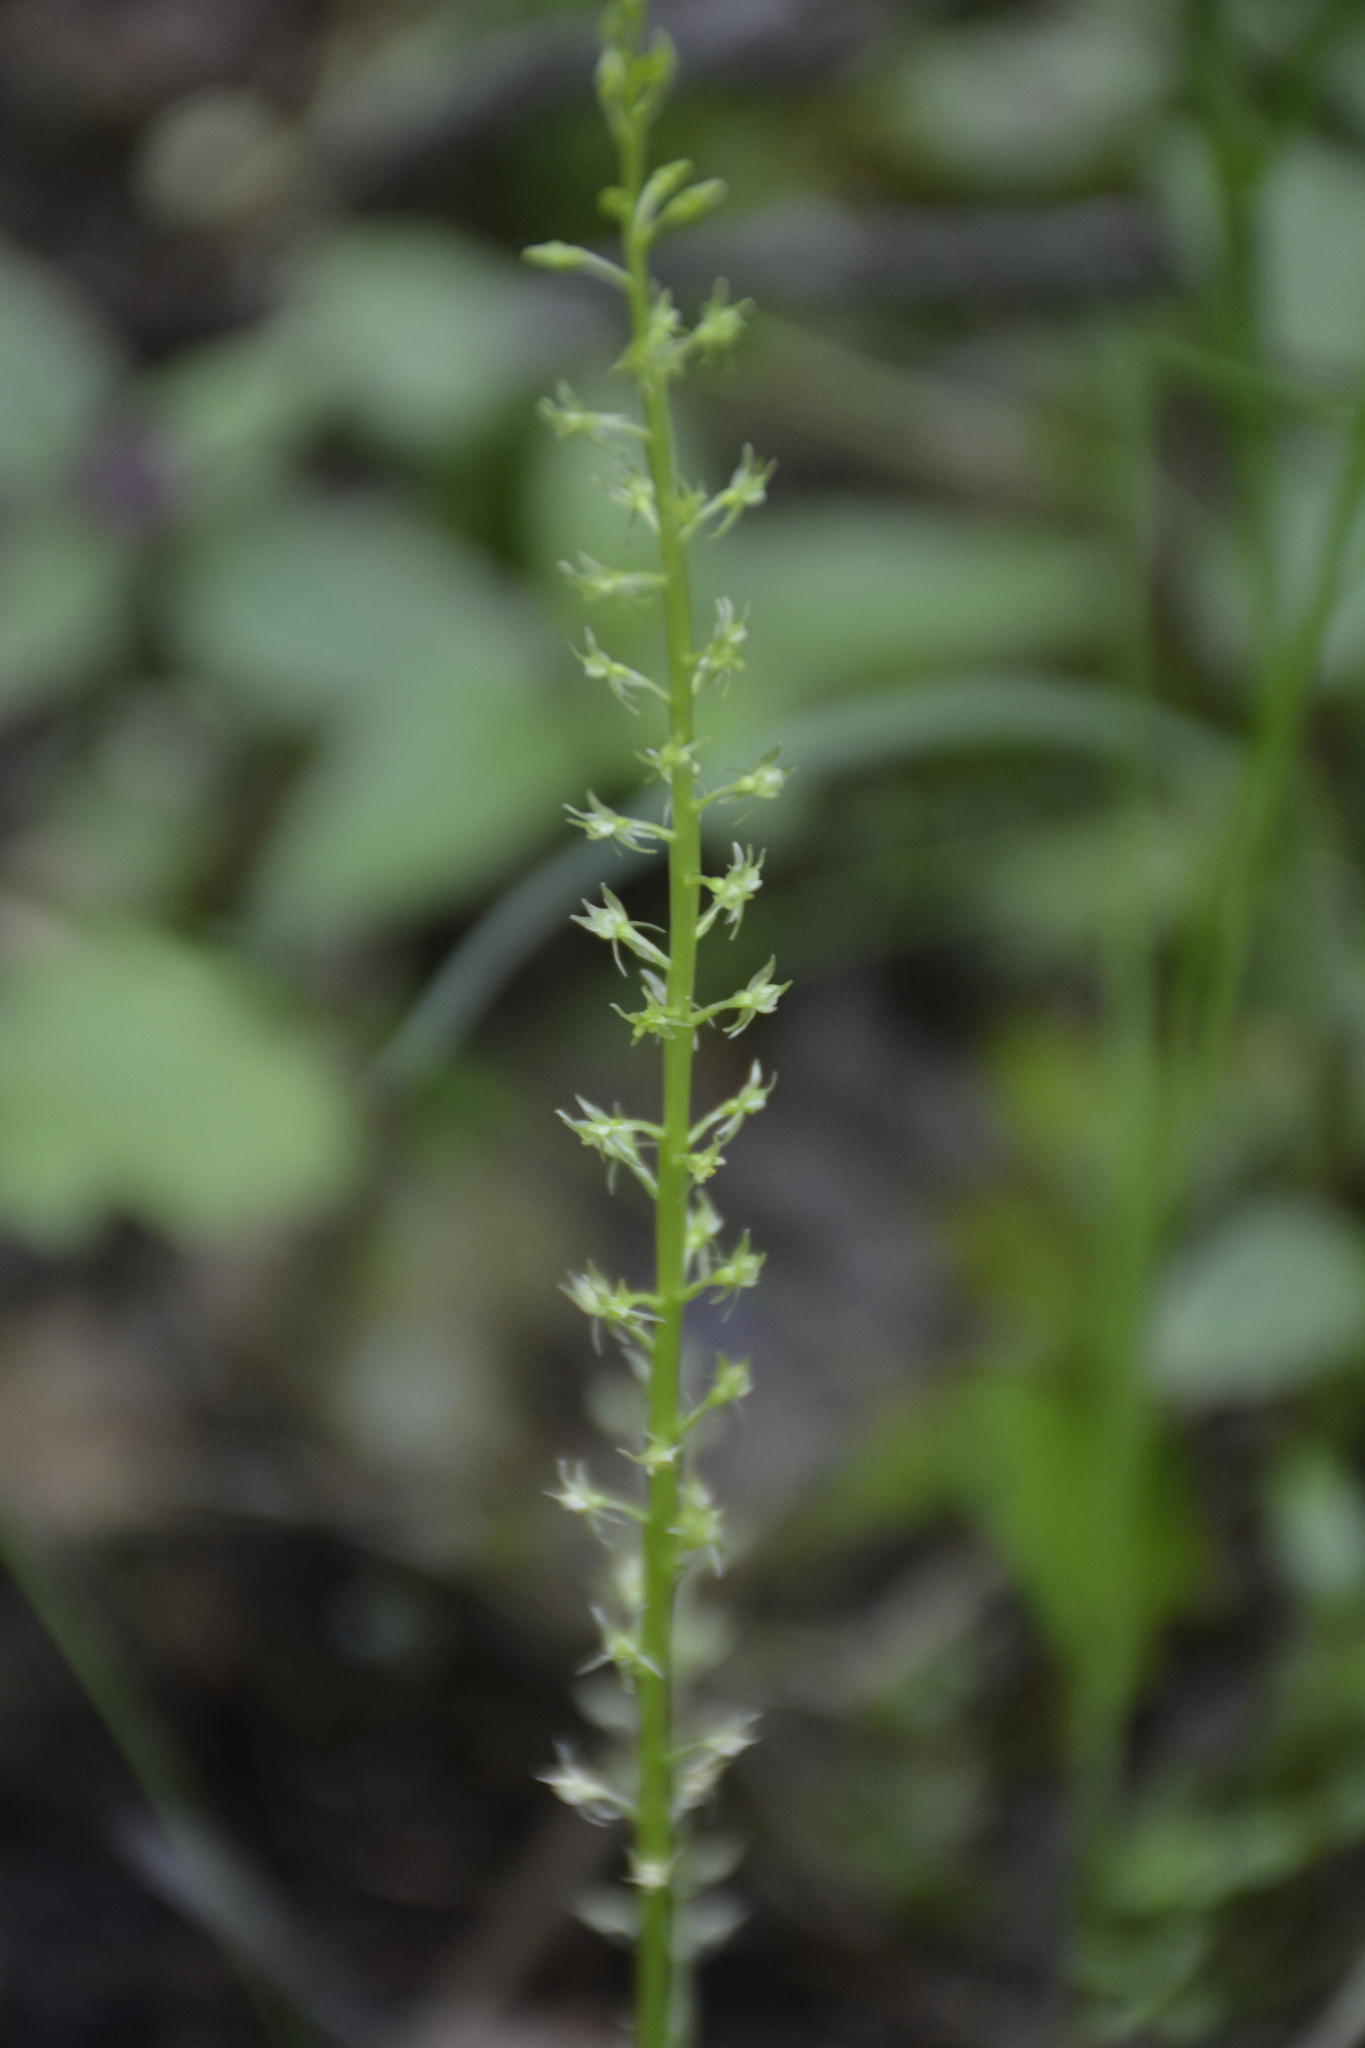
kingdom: Plantae
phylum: Tracheophyta
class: Liliopsida
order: Asparagales
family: Orchidaceae
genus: Malaxis
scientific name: Malaxis monophyllos
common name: White adder's-mouth
